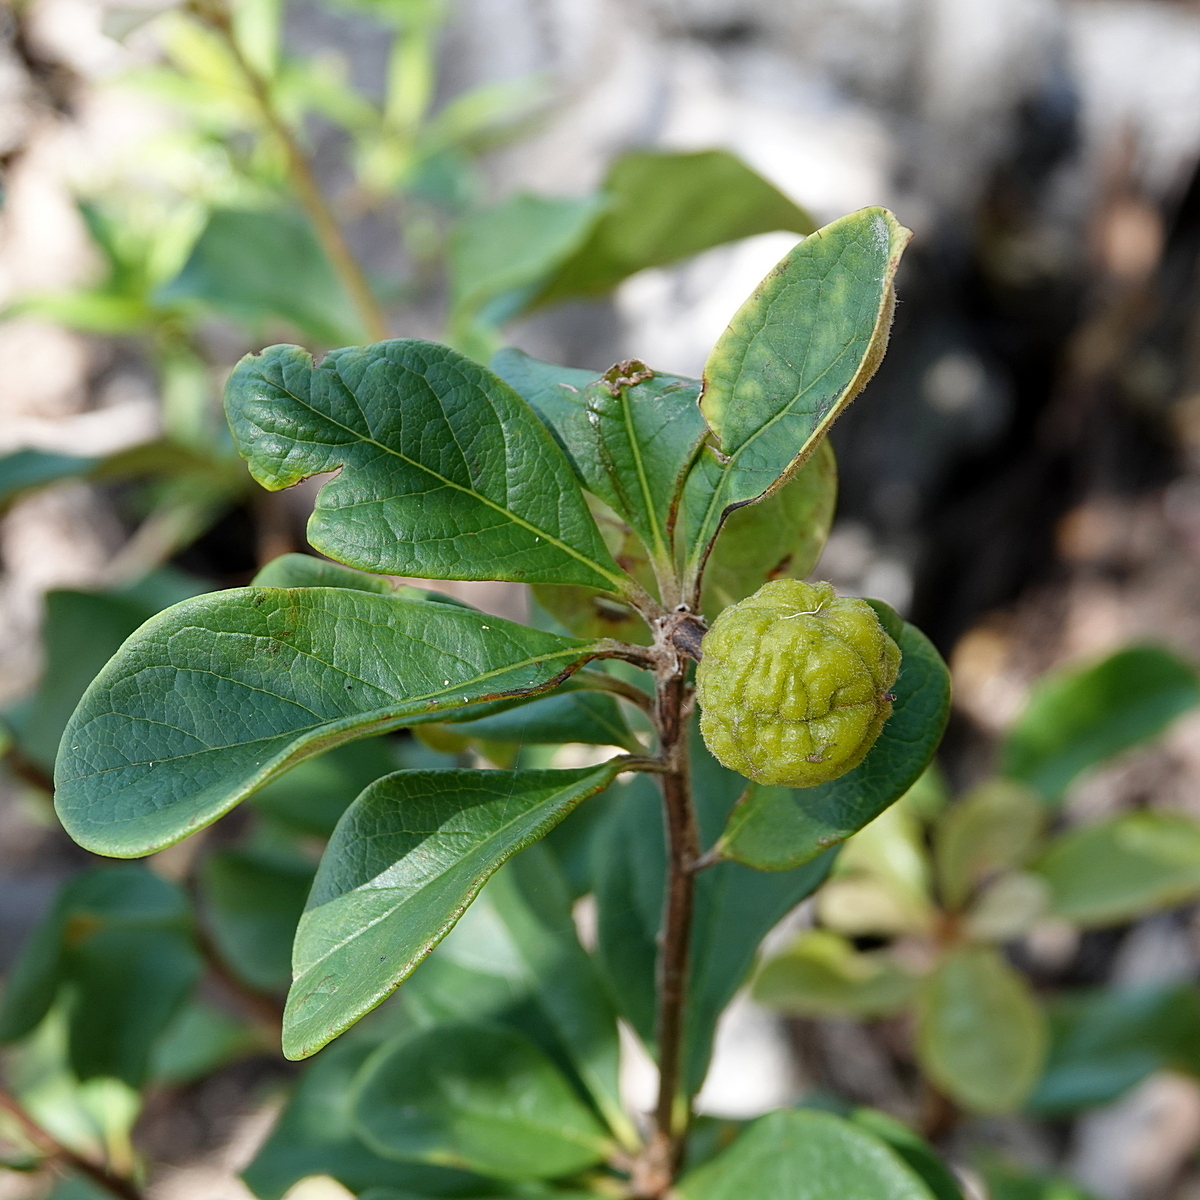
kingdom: Plantae
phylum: Tracheophyta
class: Magnoliopsida
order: Apiales
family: Pittosporaceae
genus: Pittosporum
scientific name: Pittosporum revolutum
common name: Brisbane-laurel
